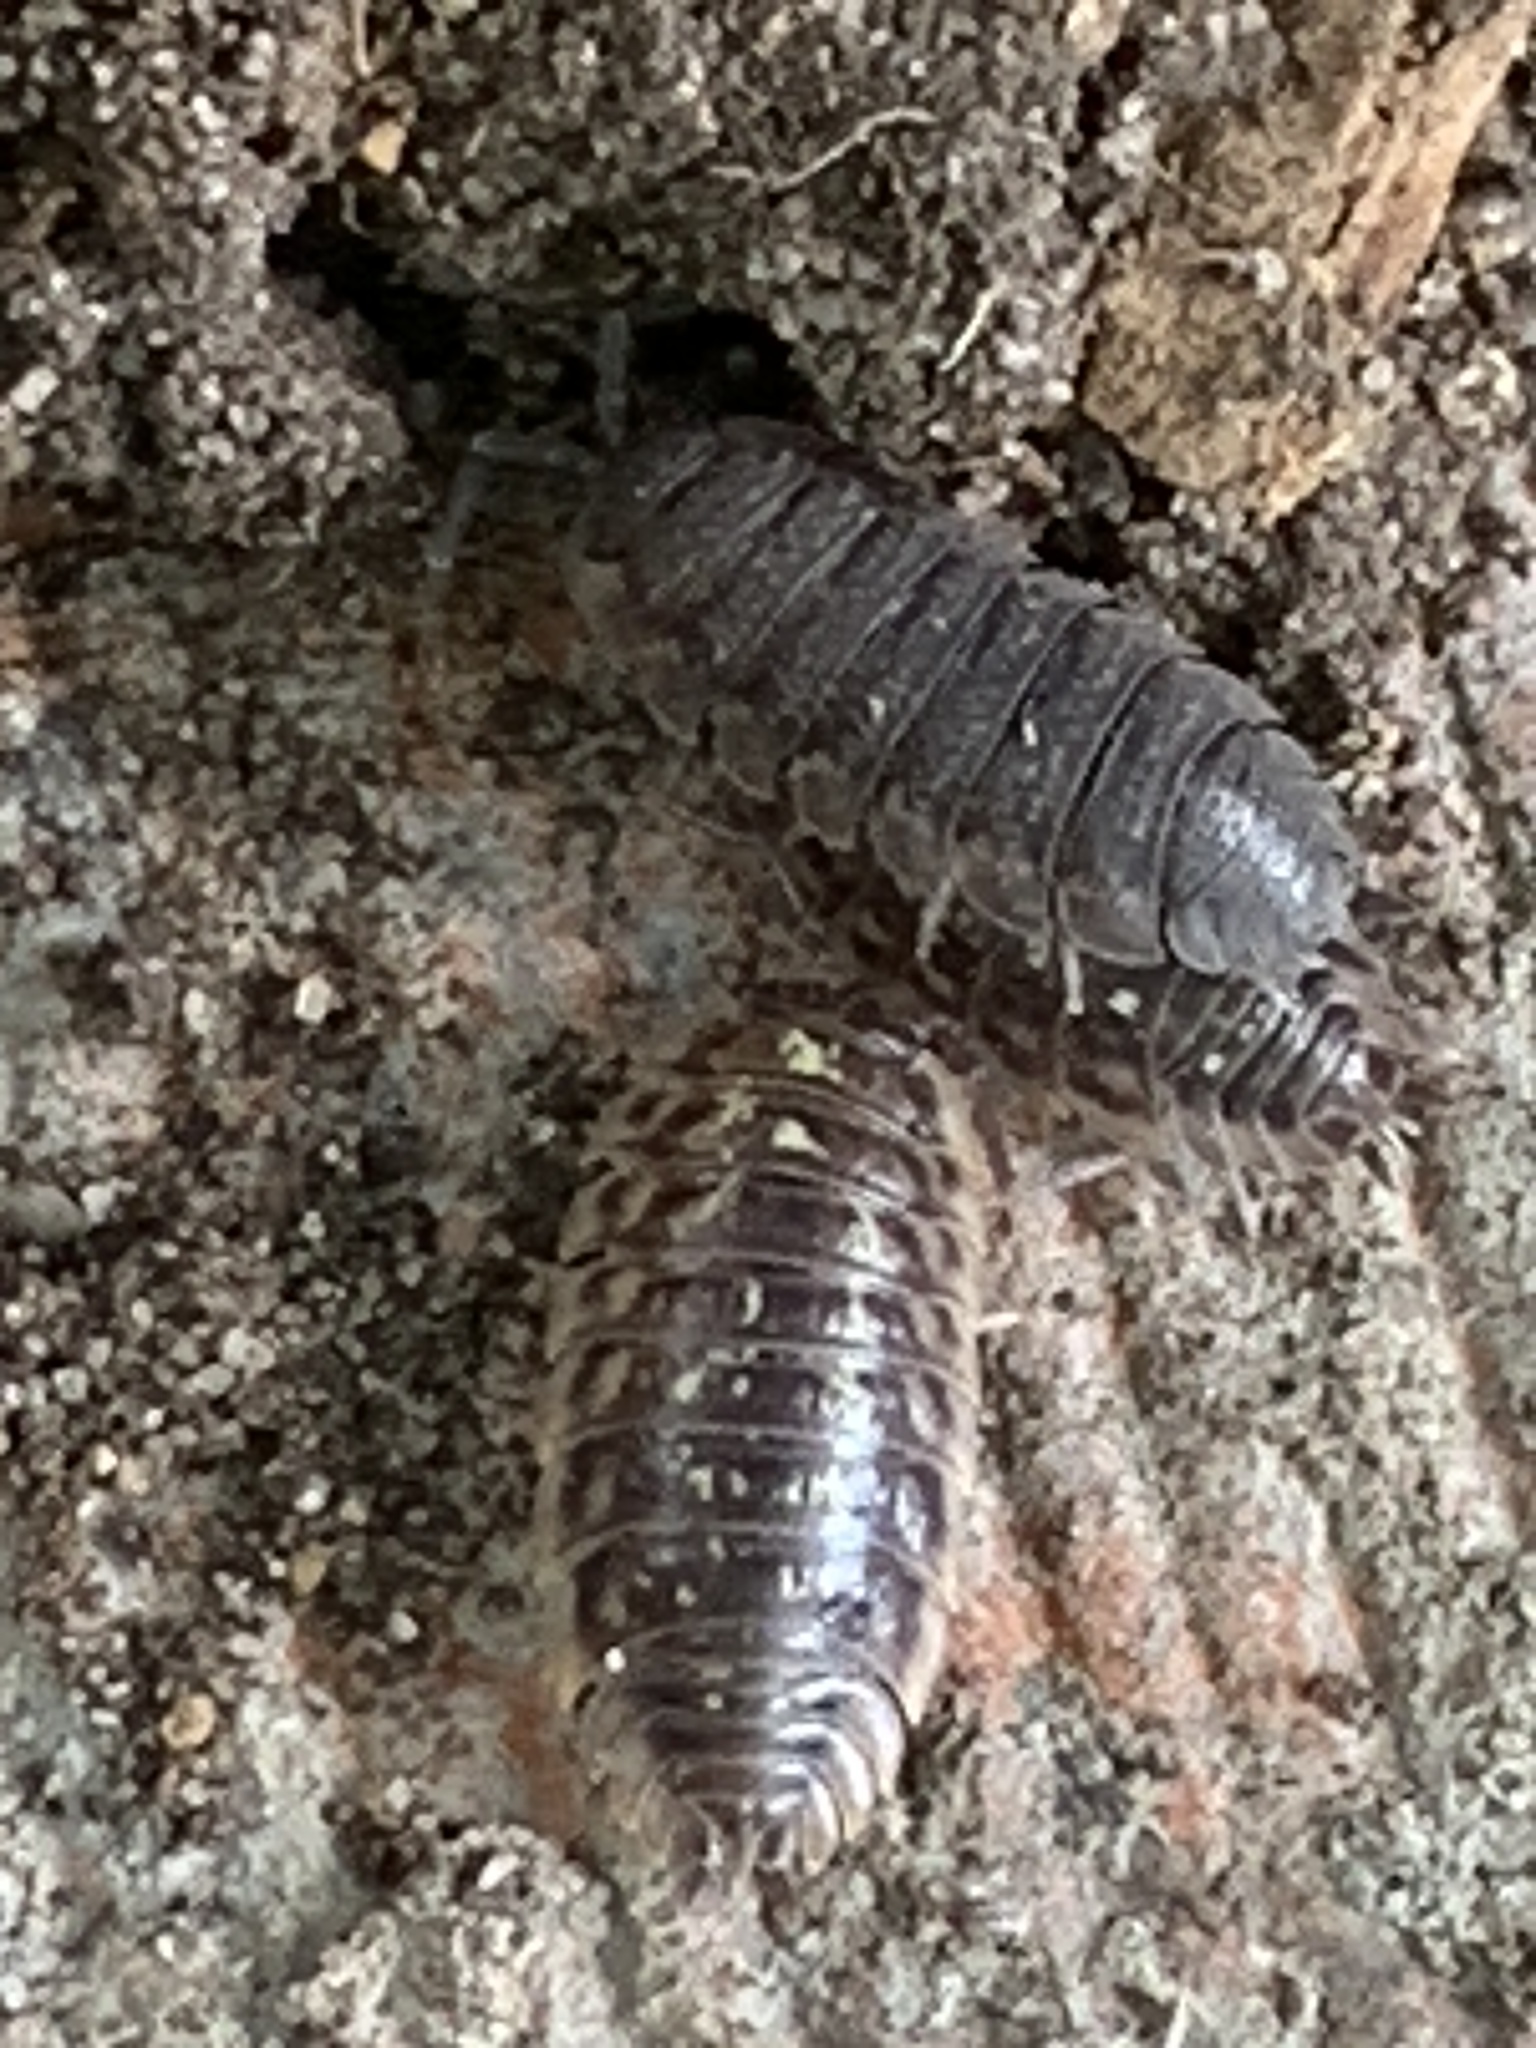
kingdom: Animalia
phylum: Arthropoda
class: Malacostraca
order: Isopoda
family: Porcellionidae
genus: Porcellio
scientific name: Porcellio scaber
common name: Common rough woodlouse
